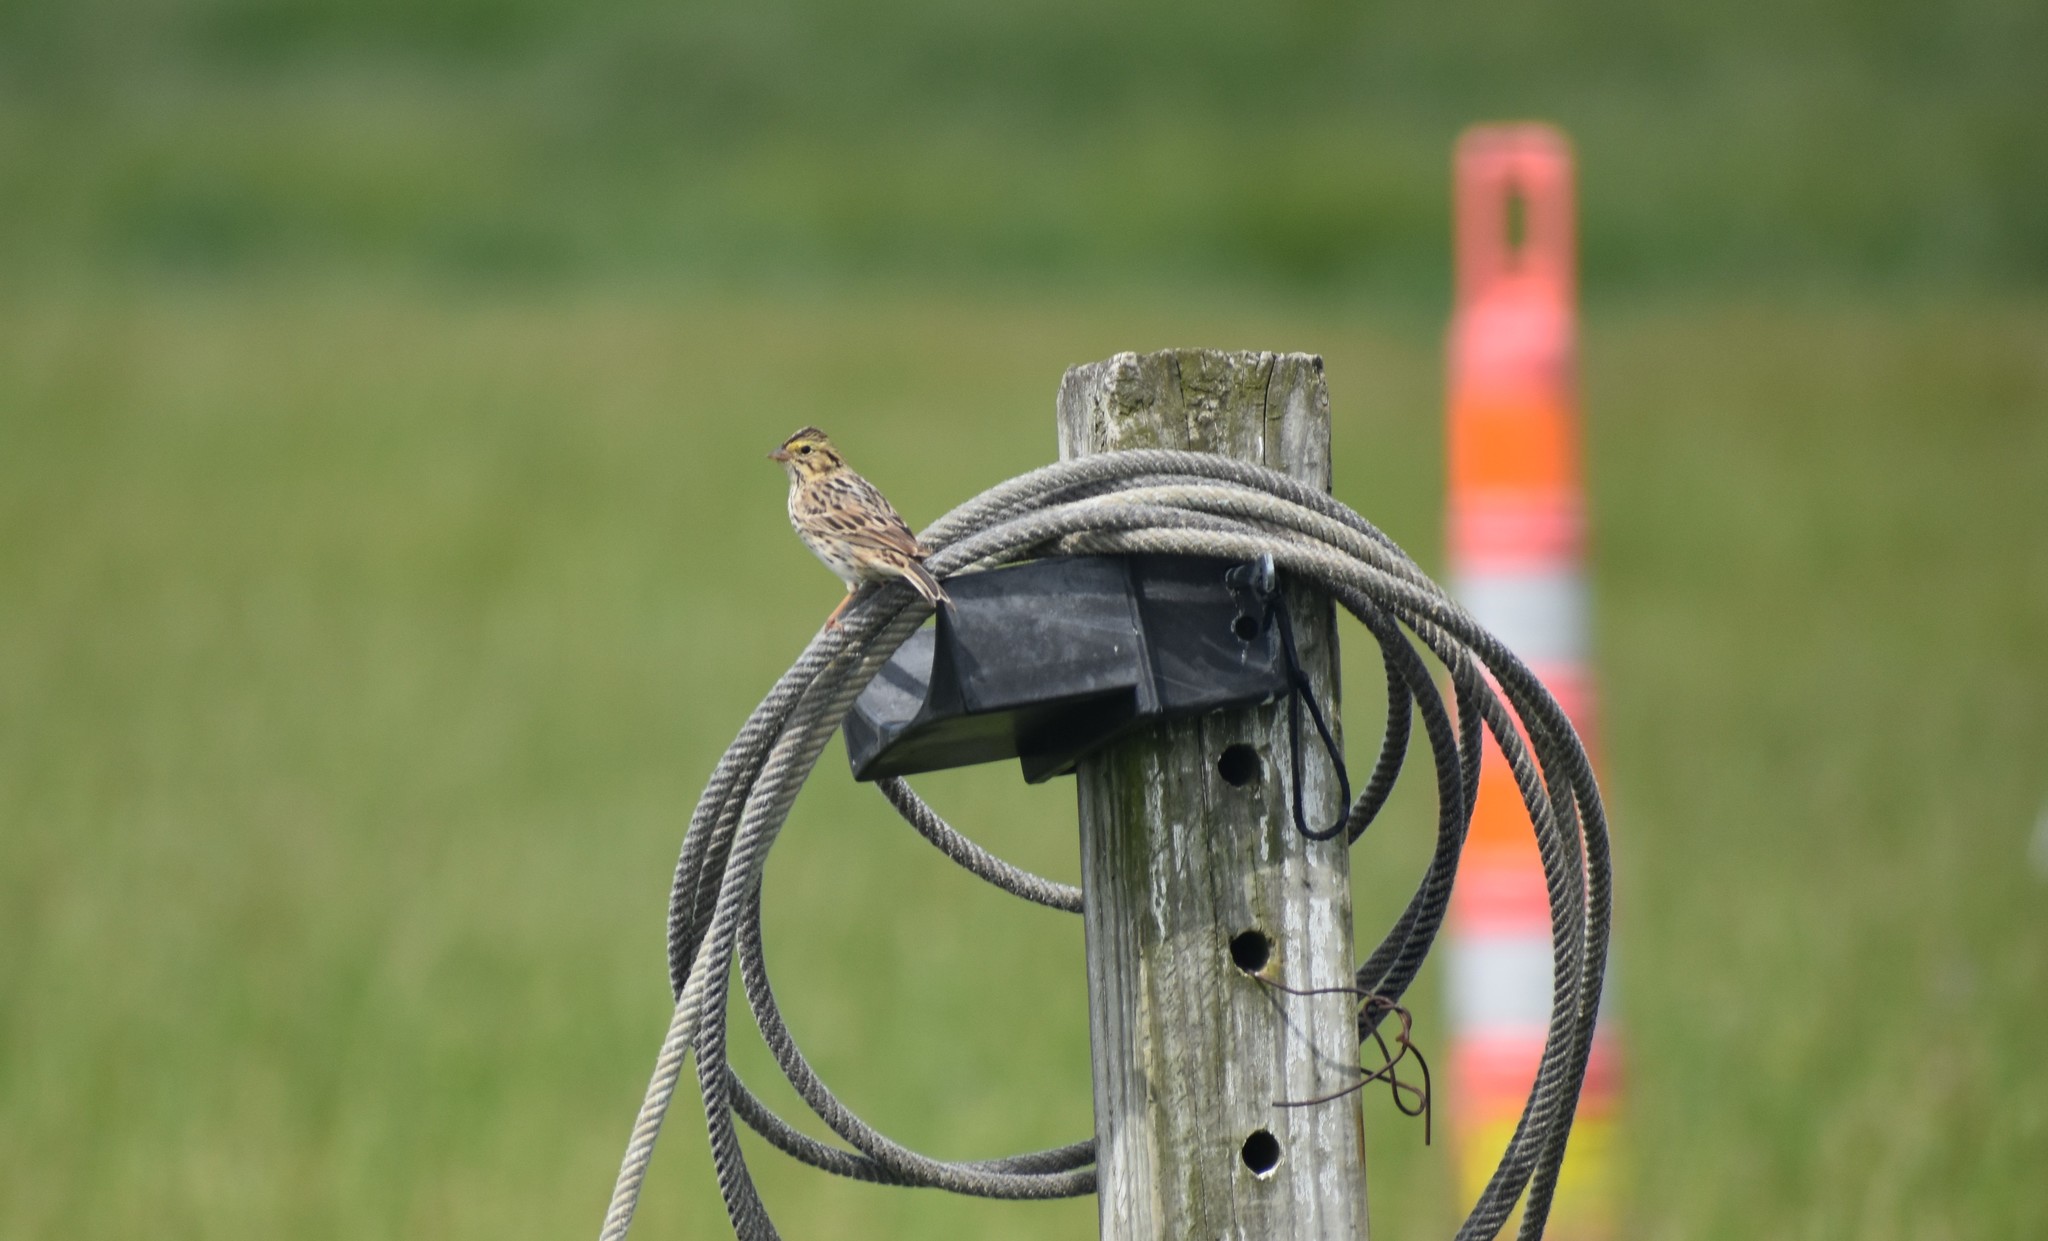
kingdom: Animalia
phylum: Chordata
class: Aves
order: Passeriformes
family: Passerellidae
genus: Passerculus
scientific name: Passerculus sandwichensis
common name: Savannah sparrow
